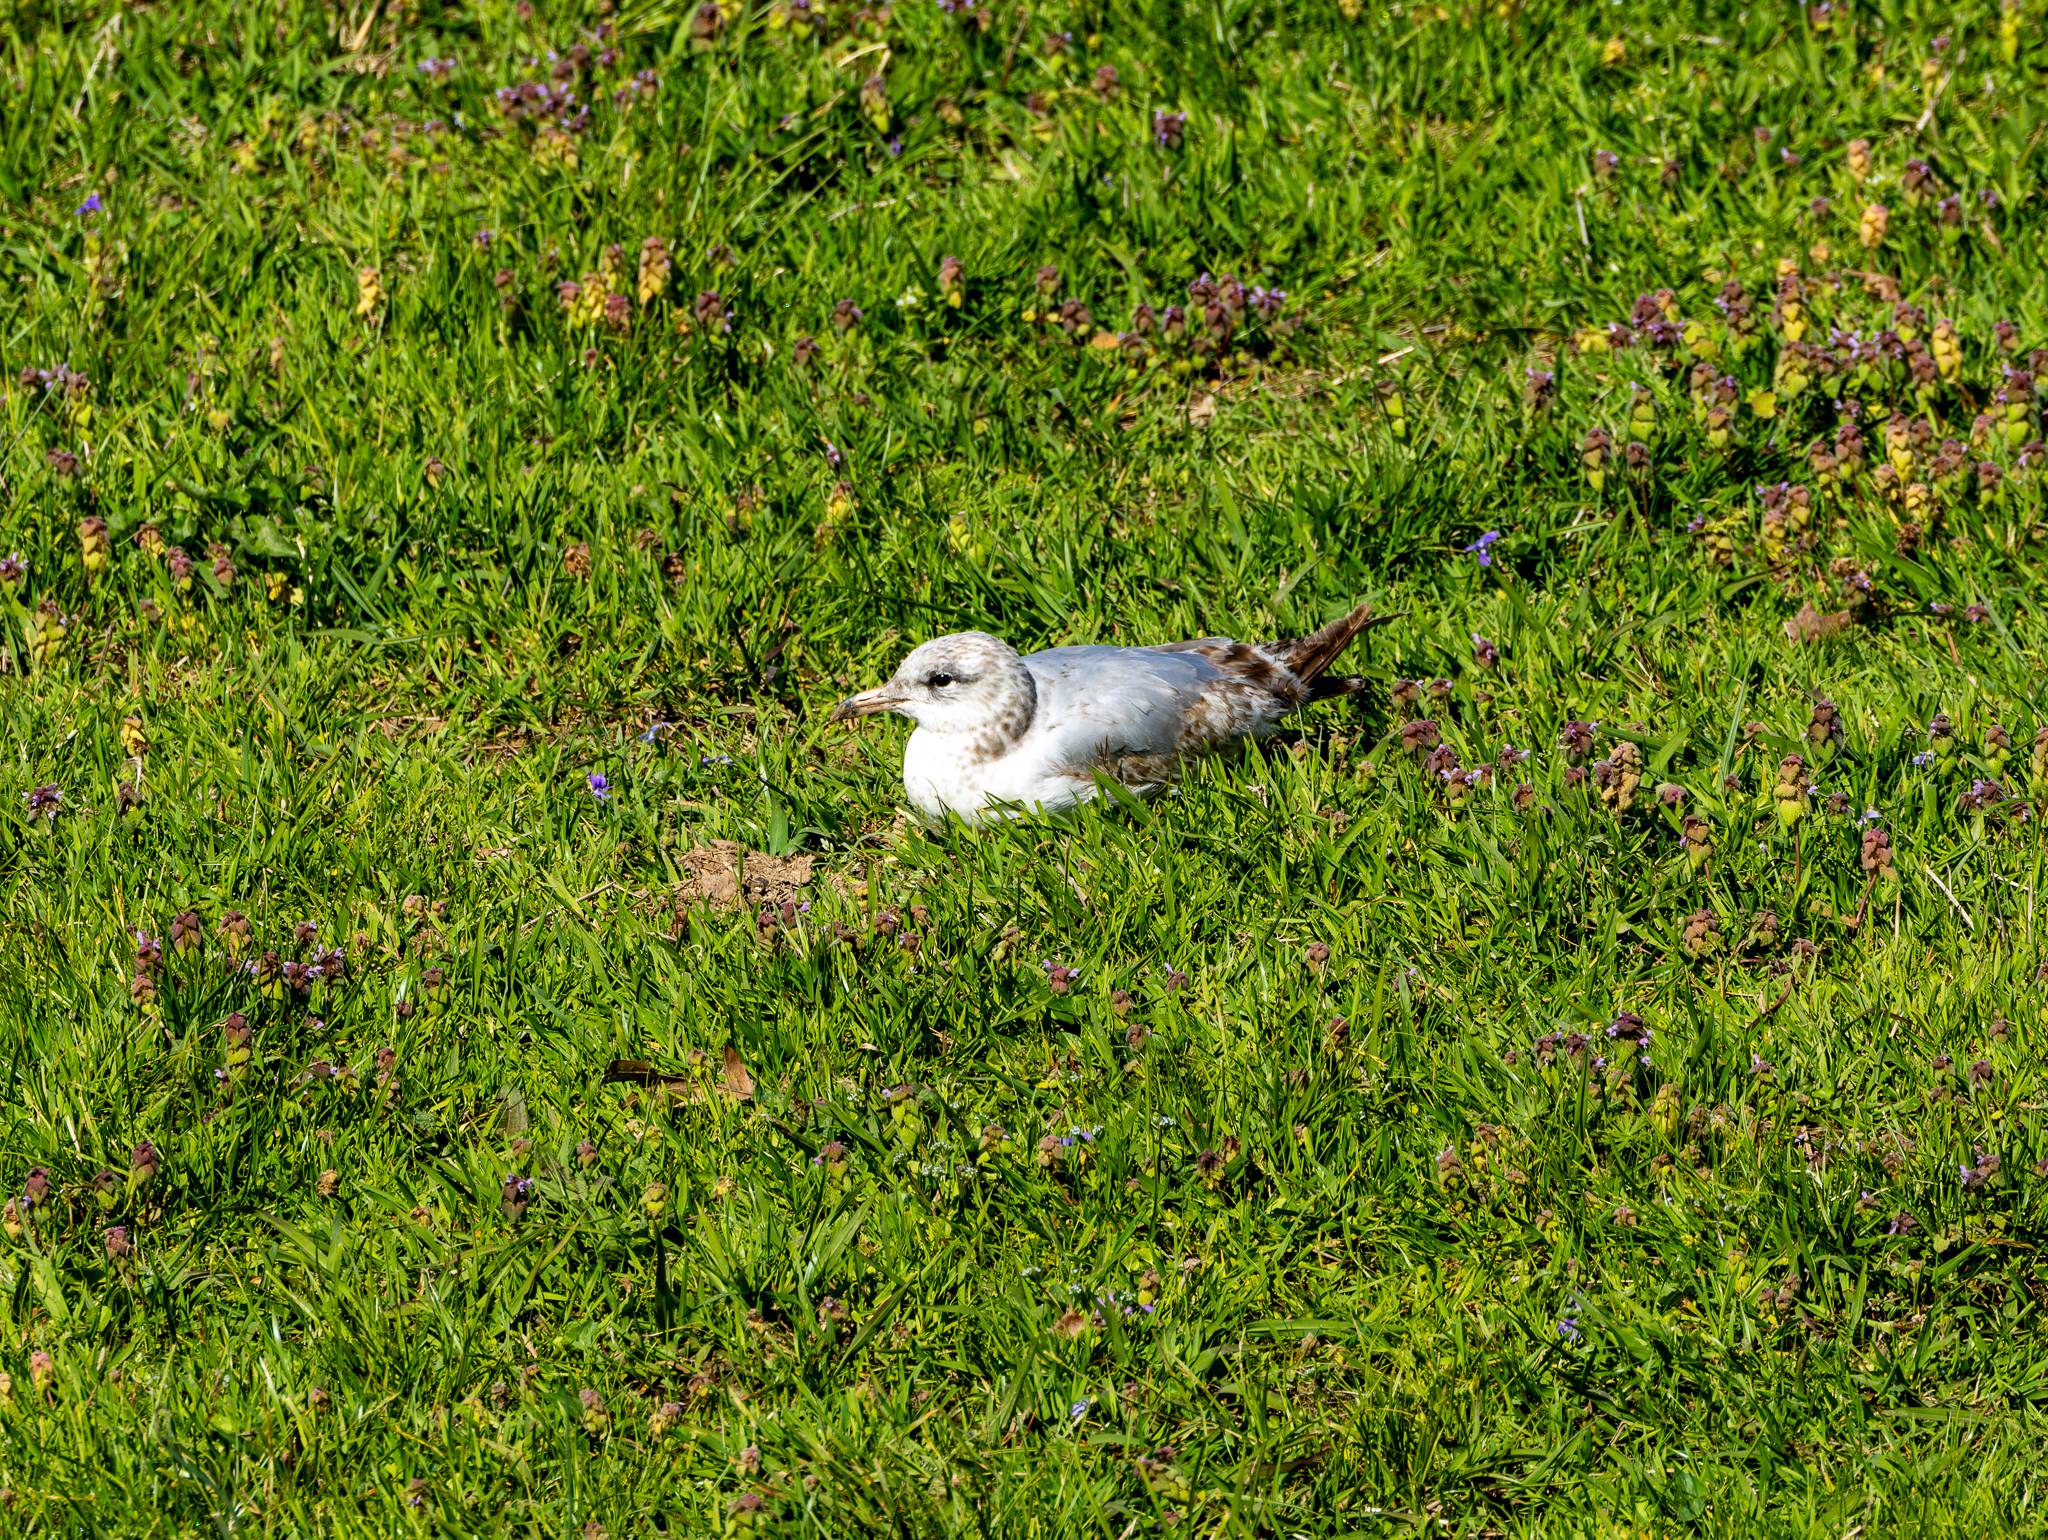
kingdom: Animalia
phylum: Chordata
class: Aves
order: Charadriiformes
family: Laridae
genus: Larus
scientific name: Larus delawarensis
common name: Ring-billed gull
